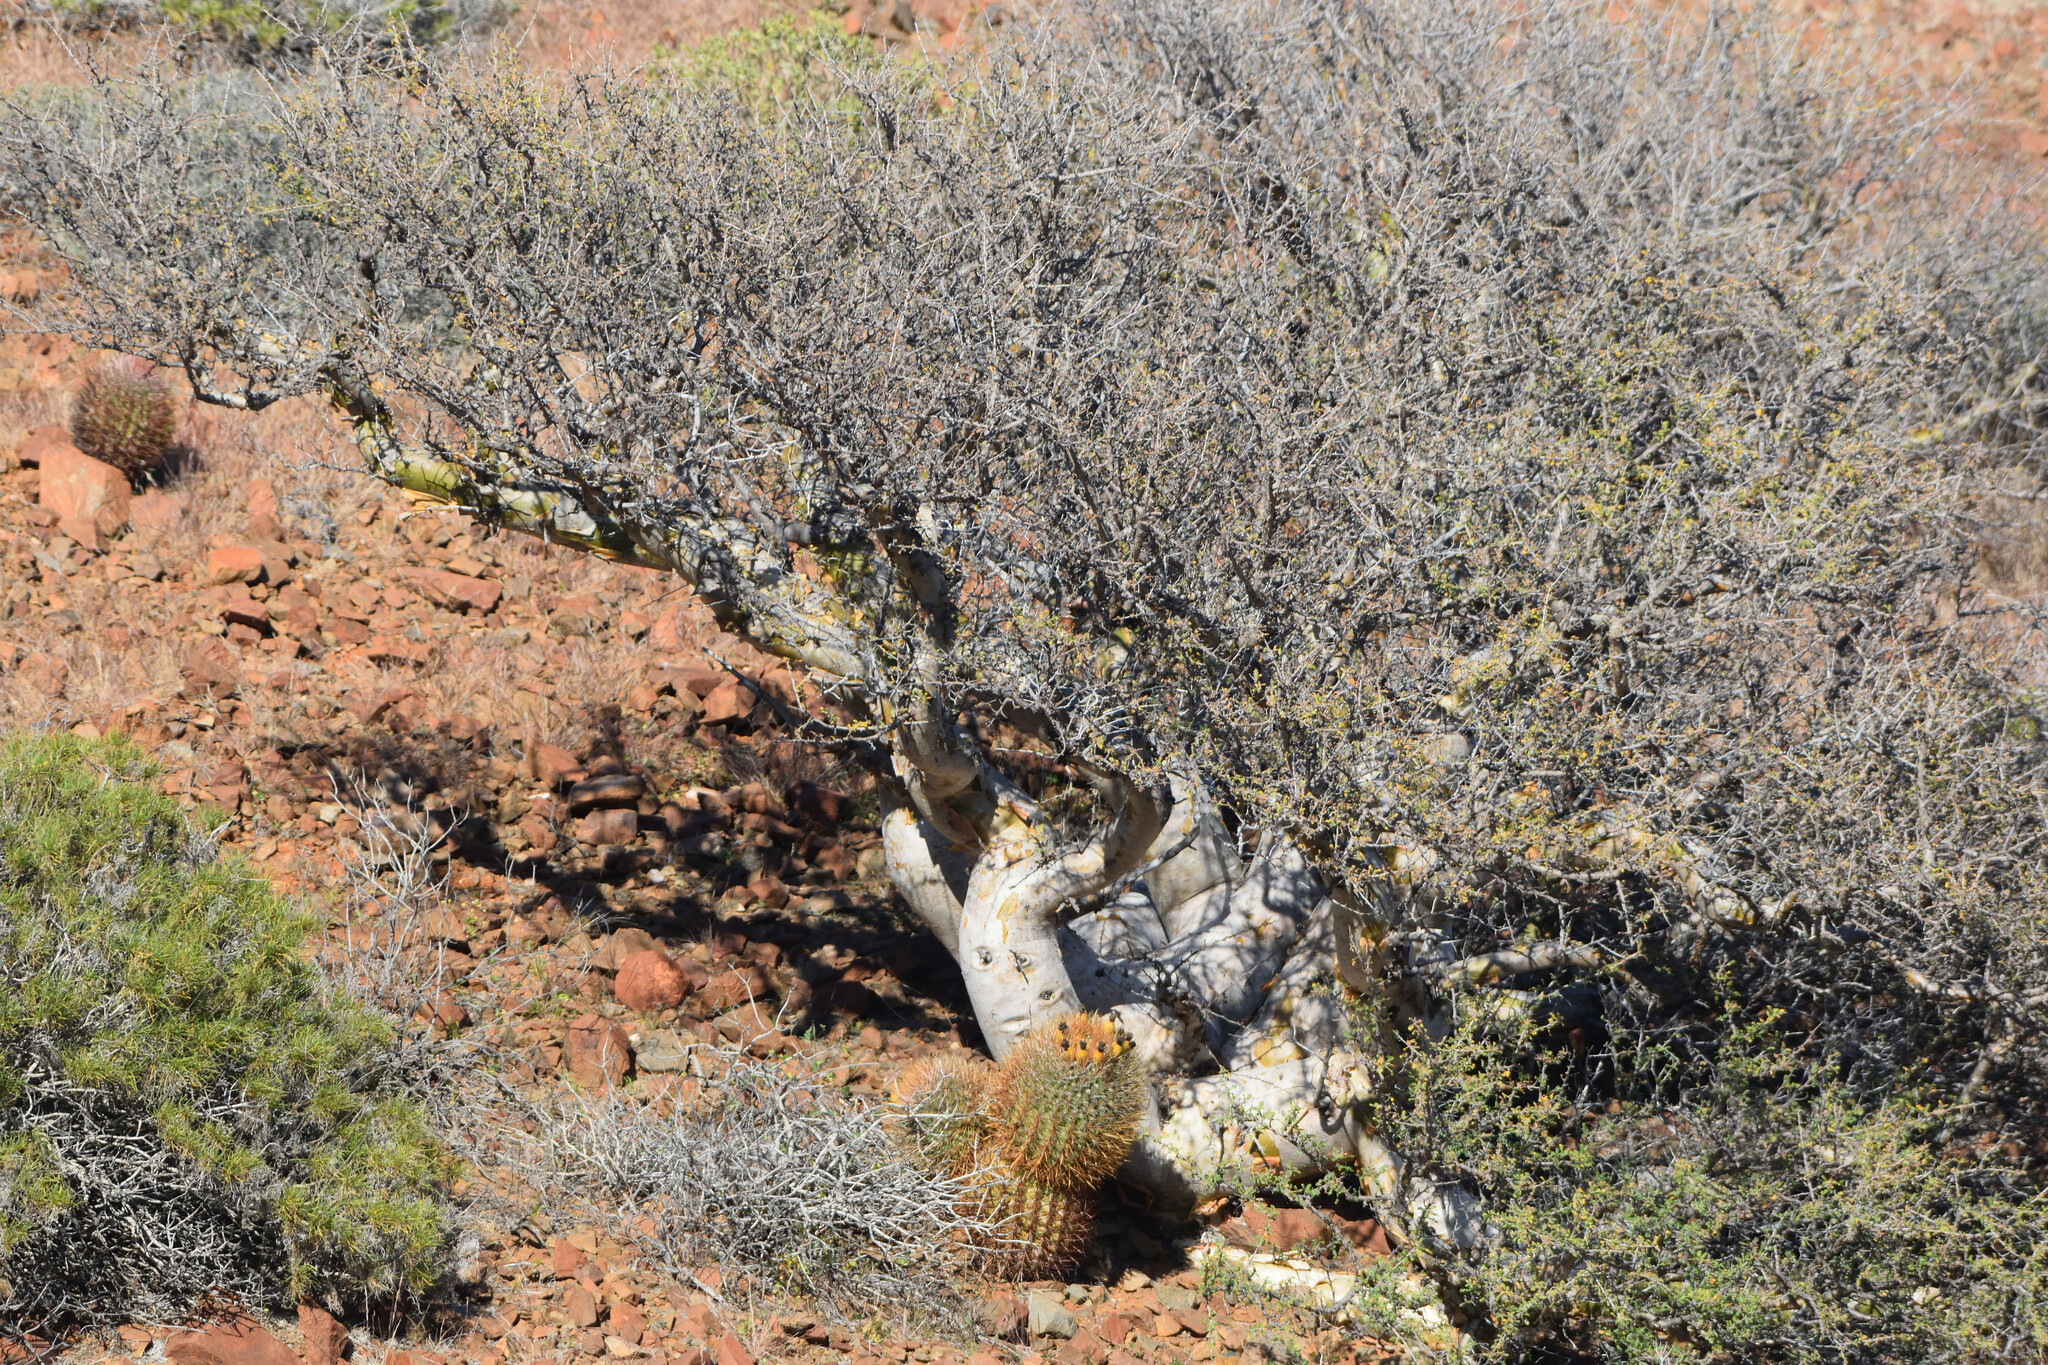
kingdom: Plantae
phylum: Tracheophyta
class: Magnoliopsida
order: Sapindales
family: Anacardiaceae
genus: Pachycormus
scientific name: Pachycormus discolor
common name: Succulent elephant trees
